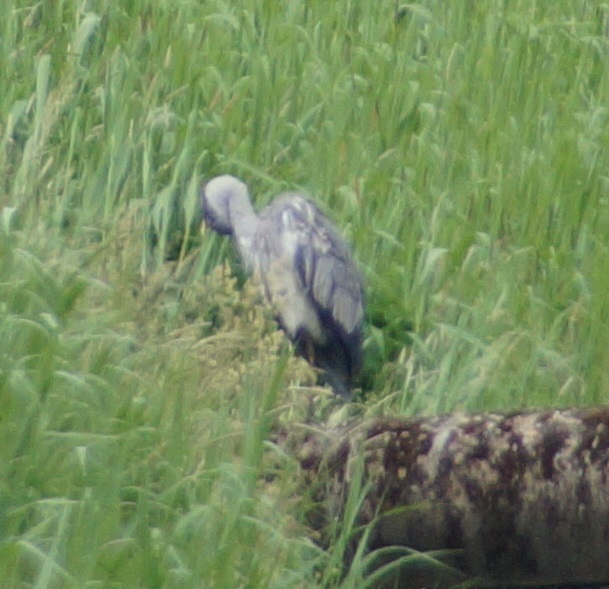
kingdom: Animalia
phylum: Chordata
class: Aves
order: Pelecaniformes
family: Ardeidae
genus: Ardea
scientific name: Ardea cinerea
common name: Grey heron
